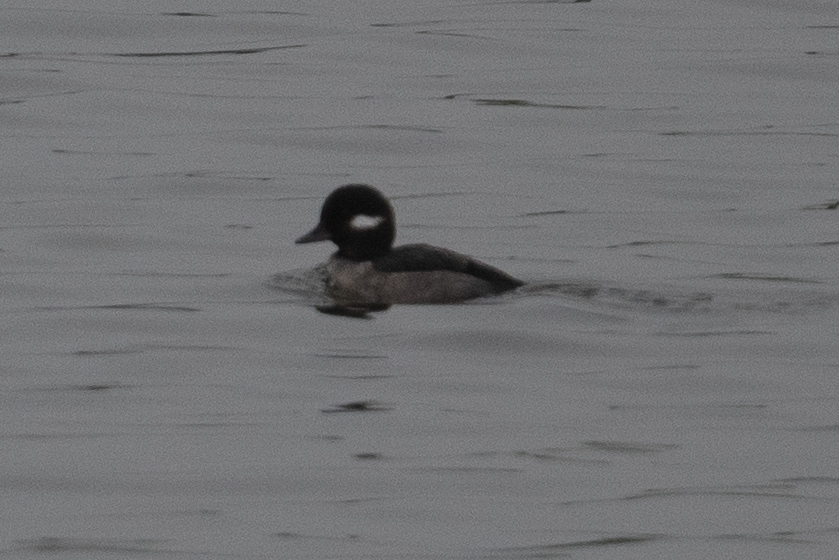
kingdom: Animalia
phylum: Chordata
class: Aves
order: Anseriformes
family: Anatidae
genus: Bucephala
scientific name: Bucephala albeola
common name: Bufflehead
